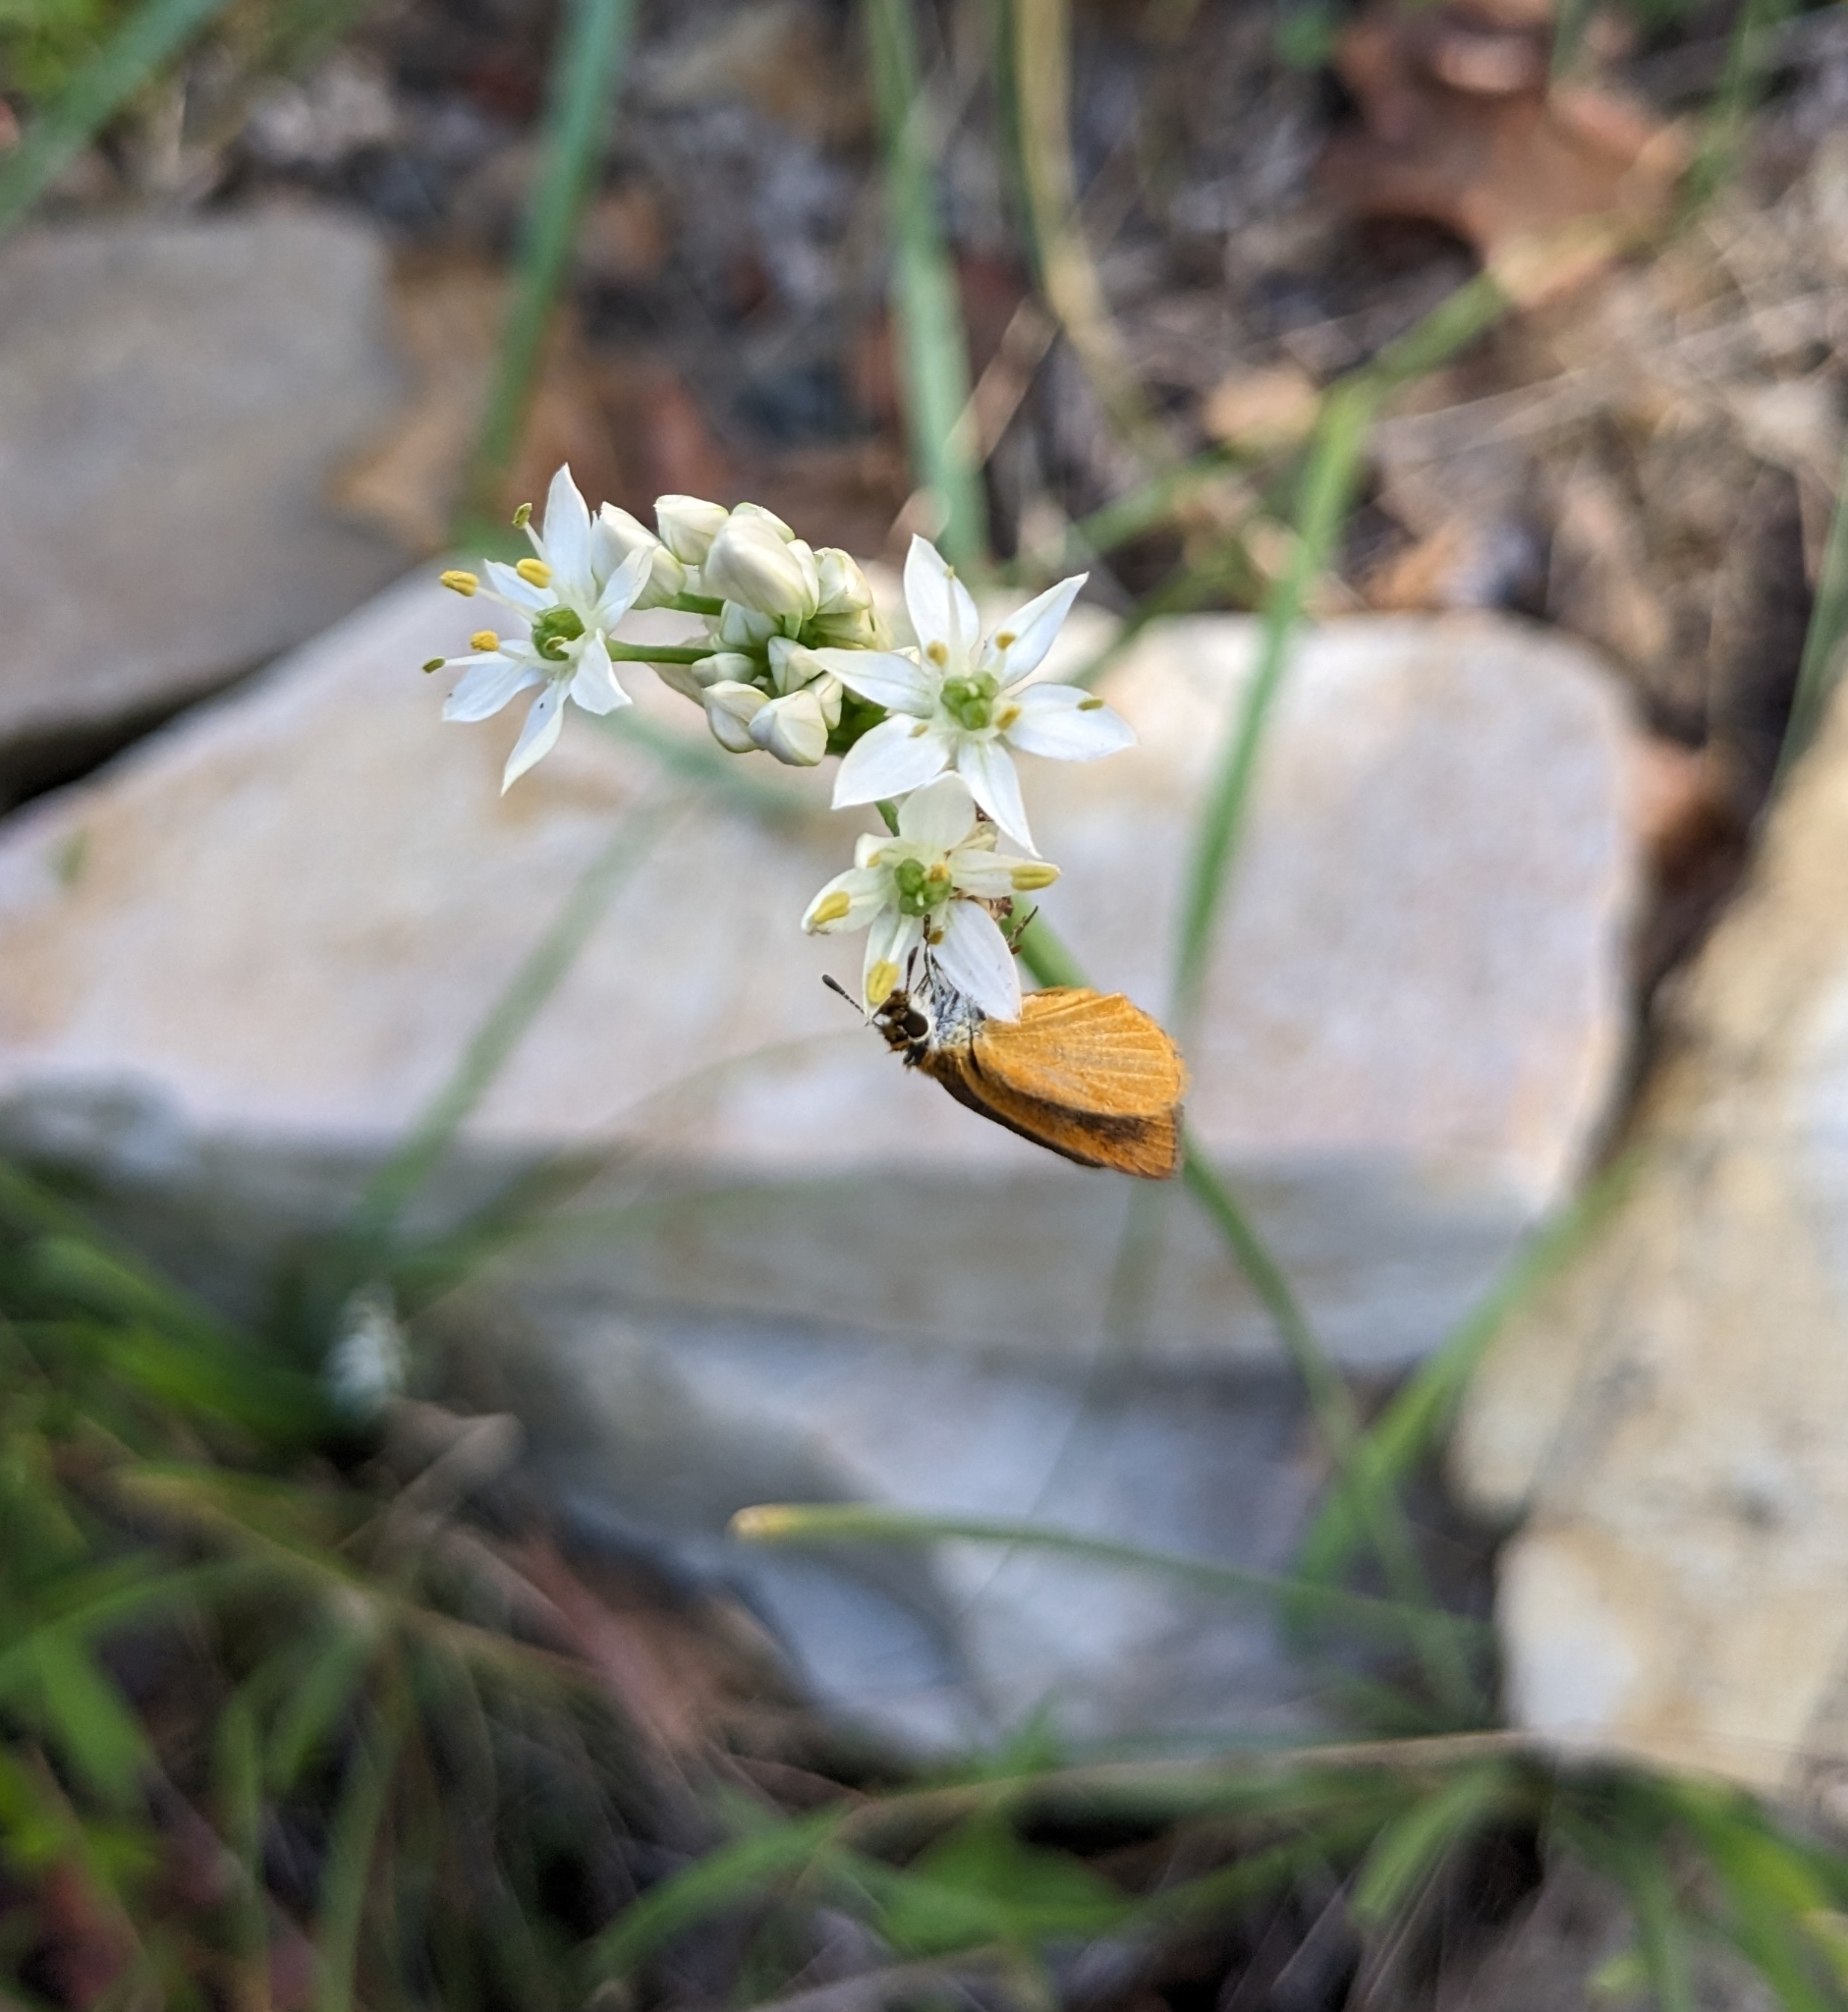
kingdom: Animalia
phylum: Arthropoda
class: Insecta
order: Lepidoptera
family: Hesperiidae
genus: Ancyloxypha
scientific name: Ancyloxypha numitor
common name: Least skipper
